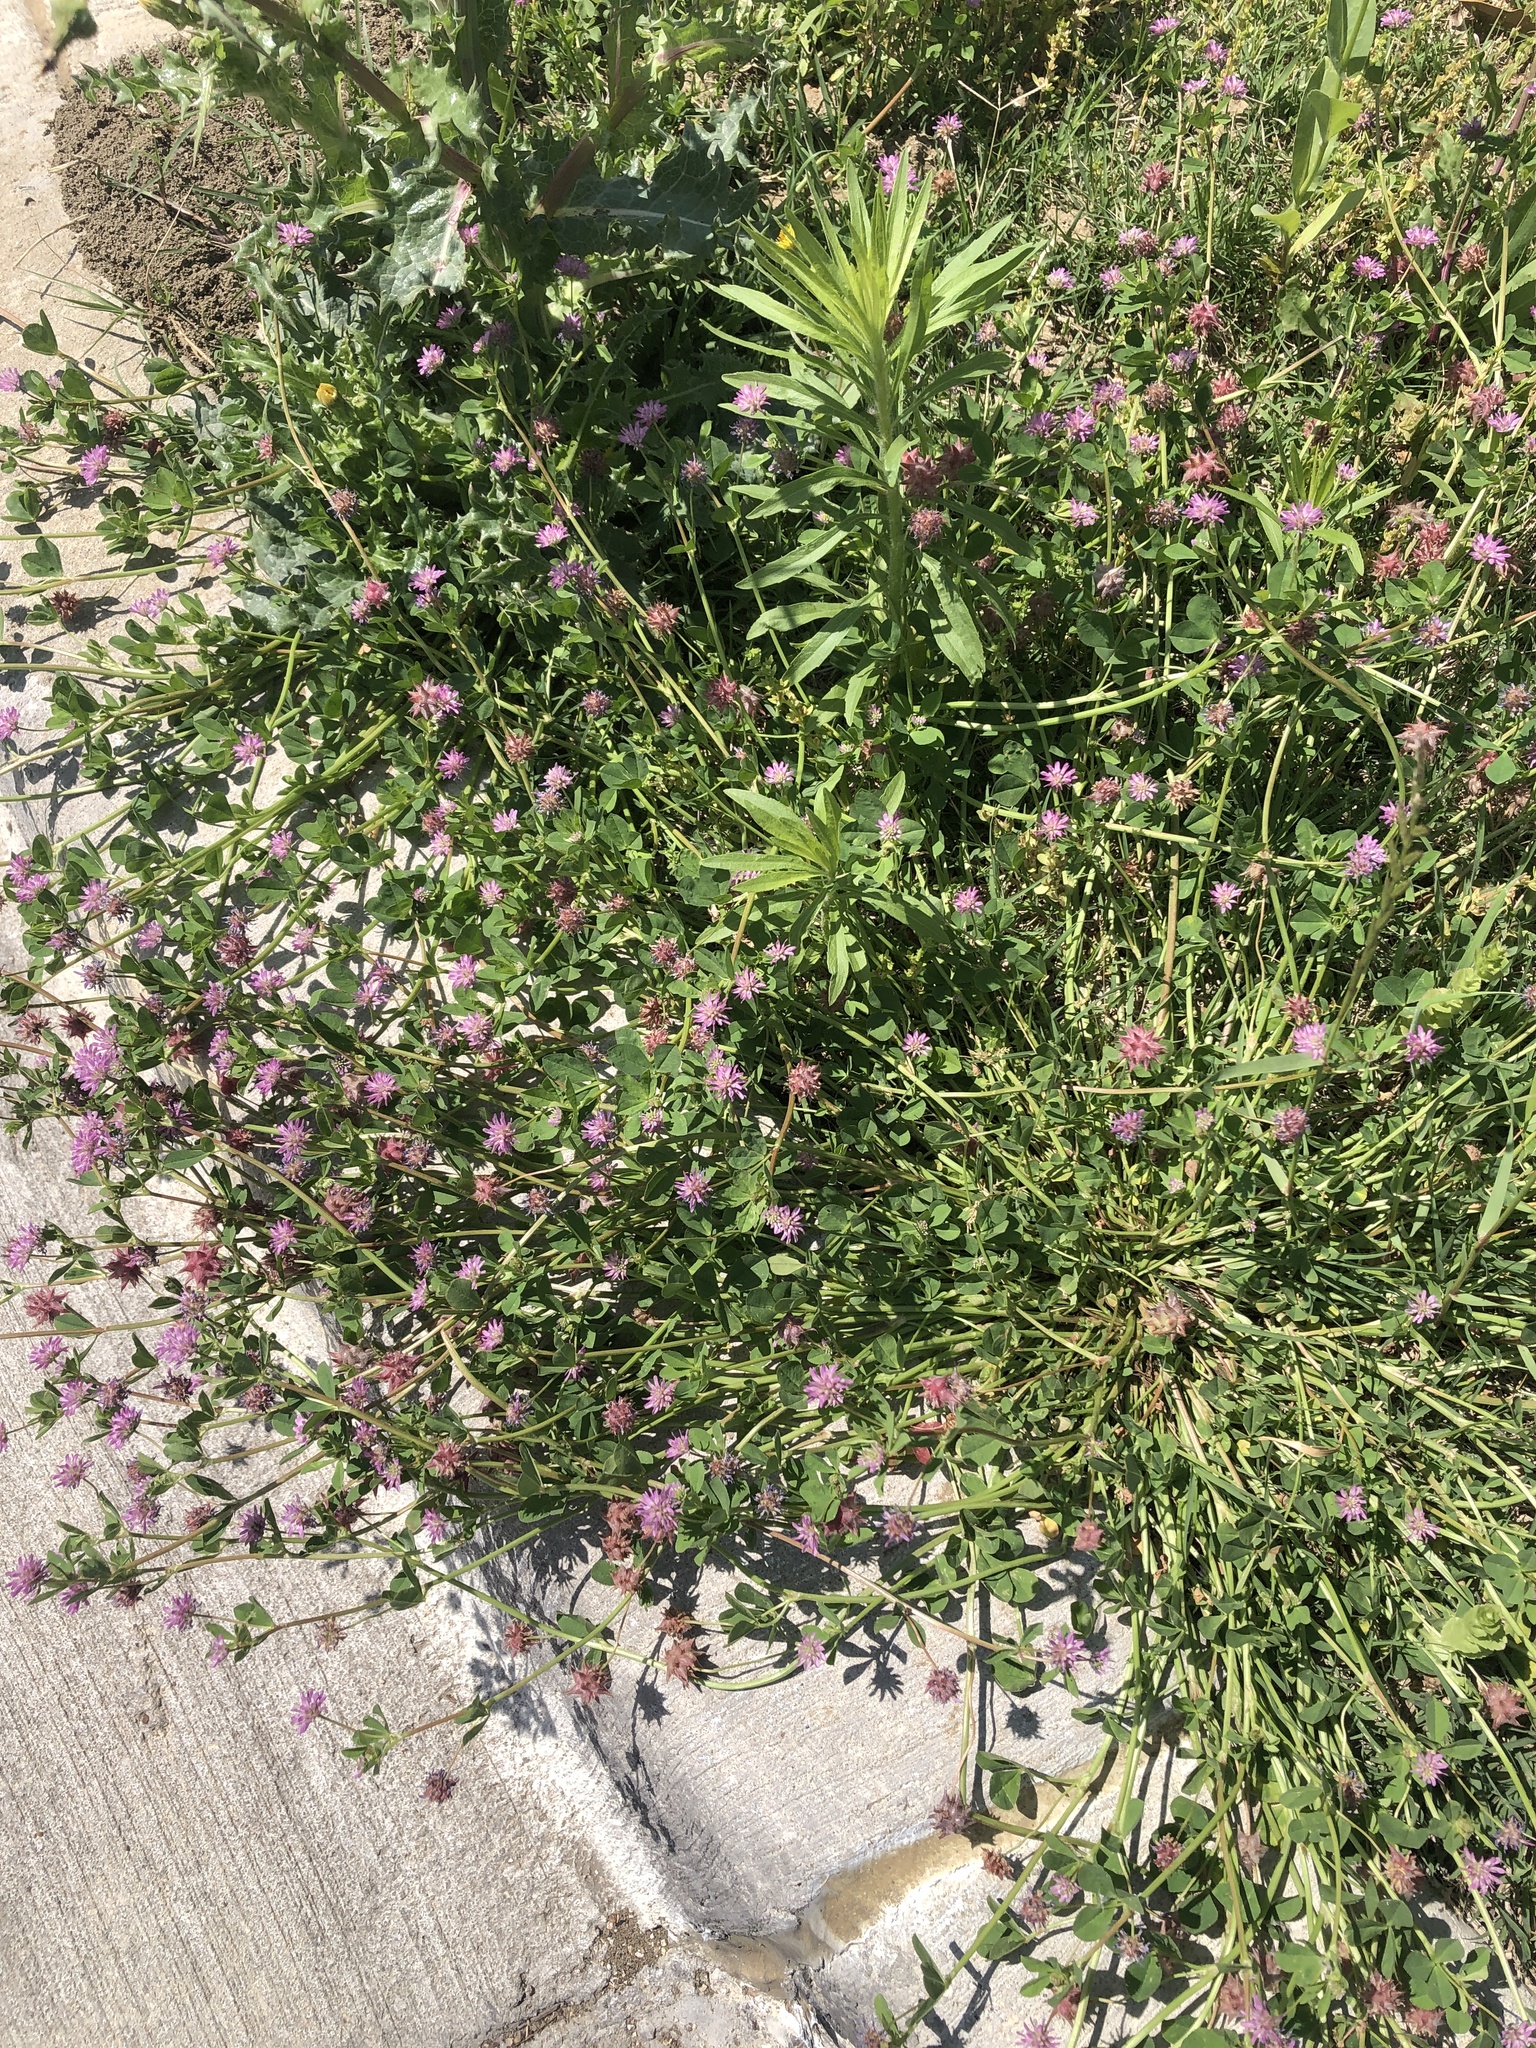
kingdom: Plantae
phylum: Tracheophyta
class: Magnoliopsida
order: Fabales
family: Fabaceae
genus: Trifolium
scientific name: Trifolium resupinatum
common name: Reversed clover
